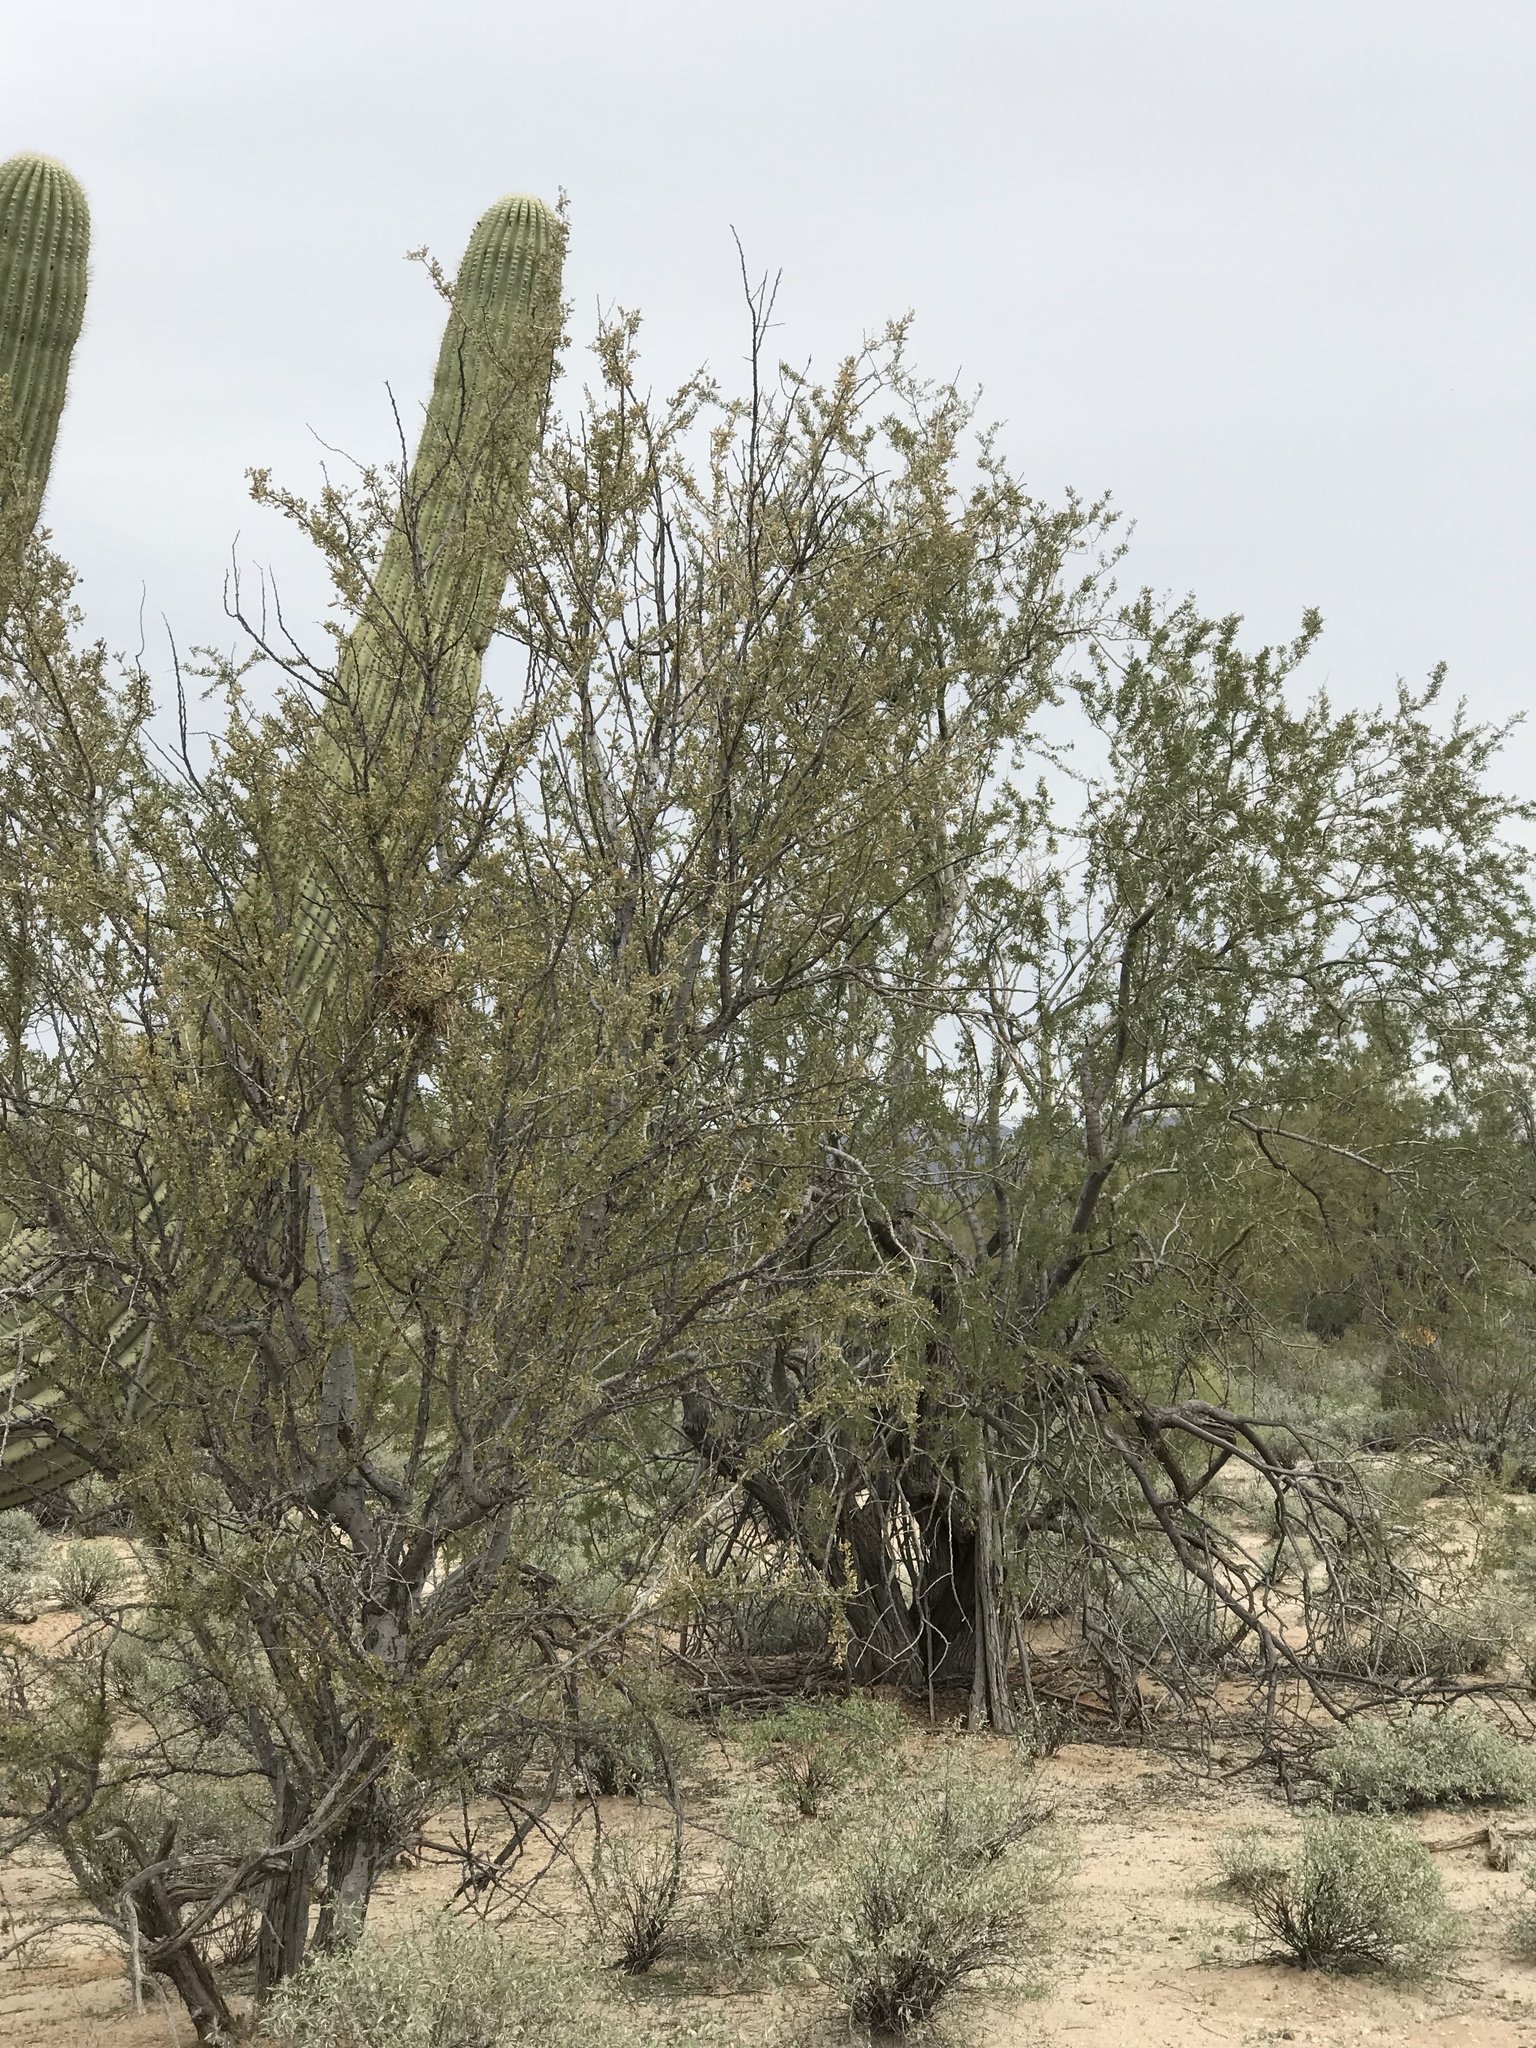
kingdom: Plantae
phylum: Tracheophyta
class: Magnoliopsida
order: Fabales
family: Fabaceae
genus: Olneya
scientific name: Olneya tesota
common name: Desert ironwood
